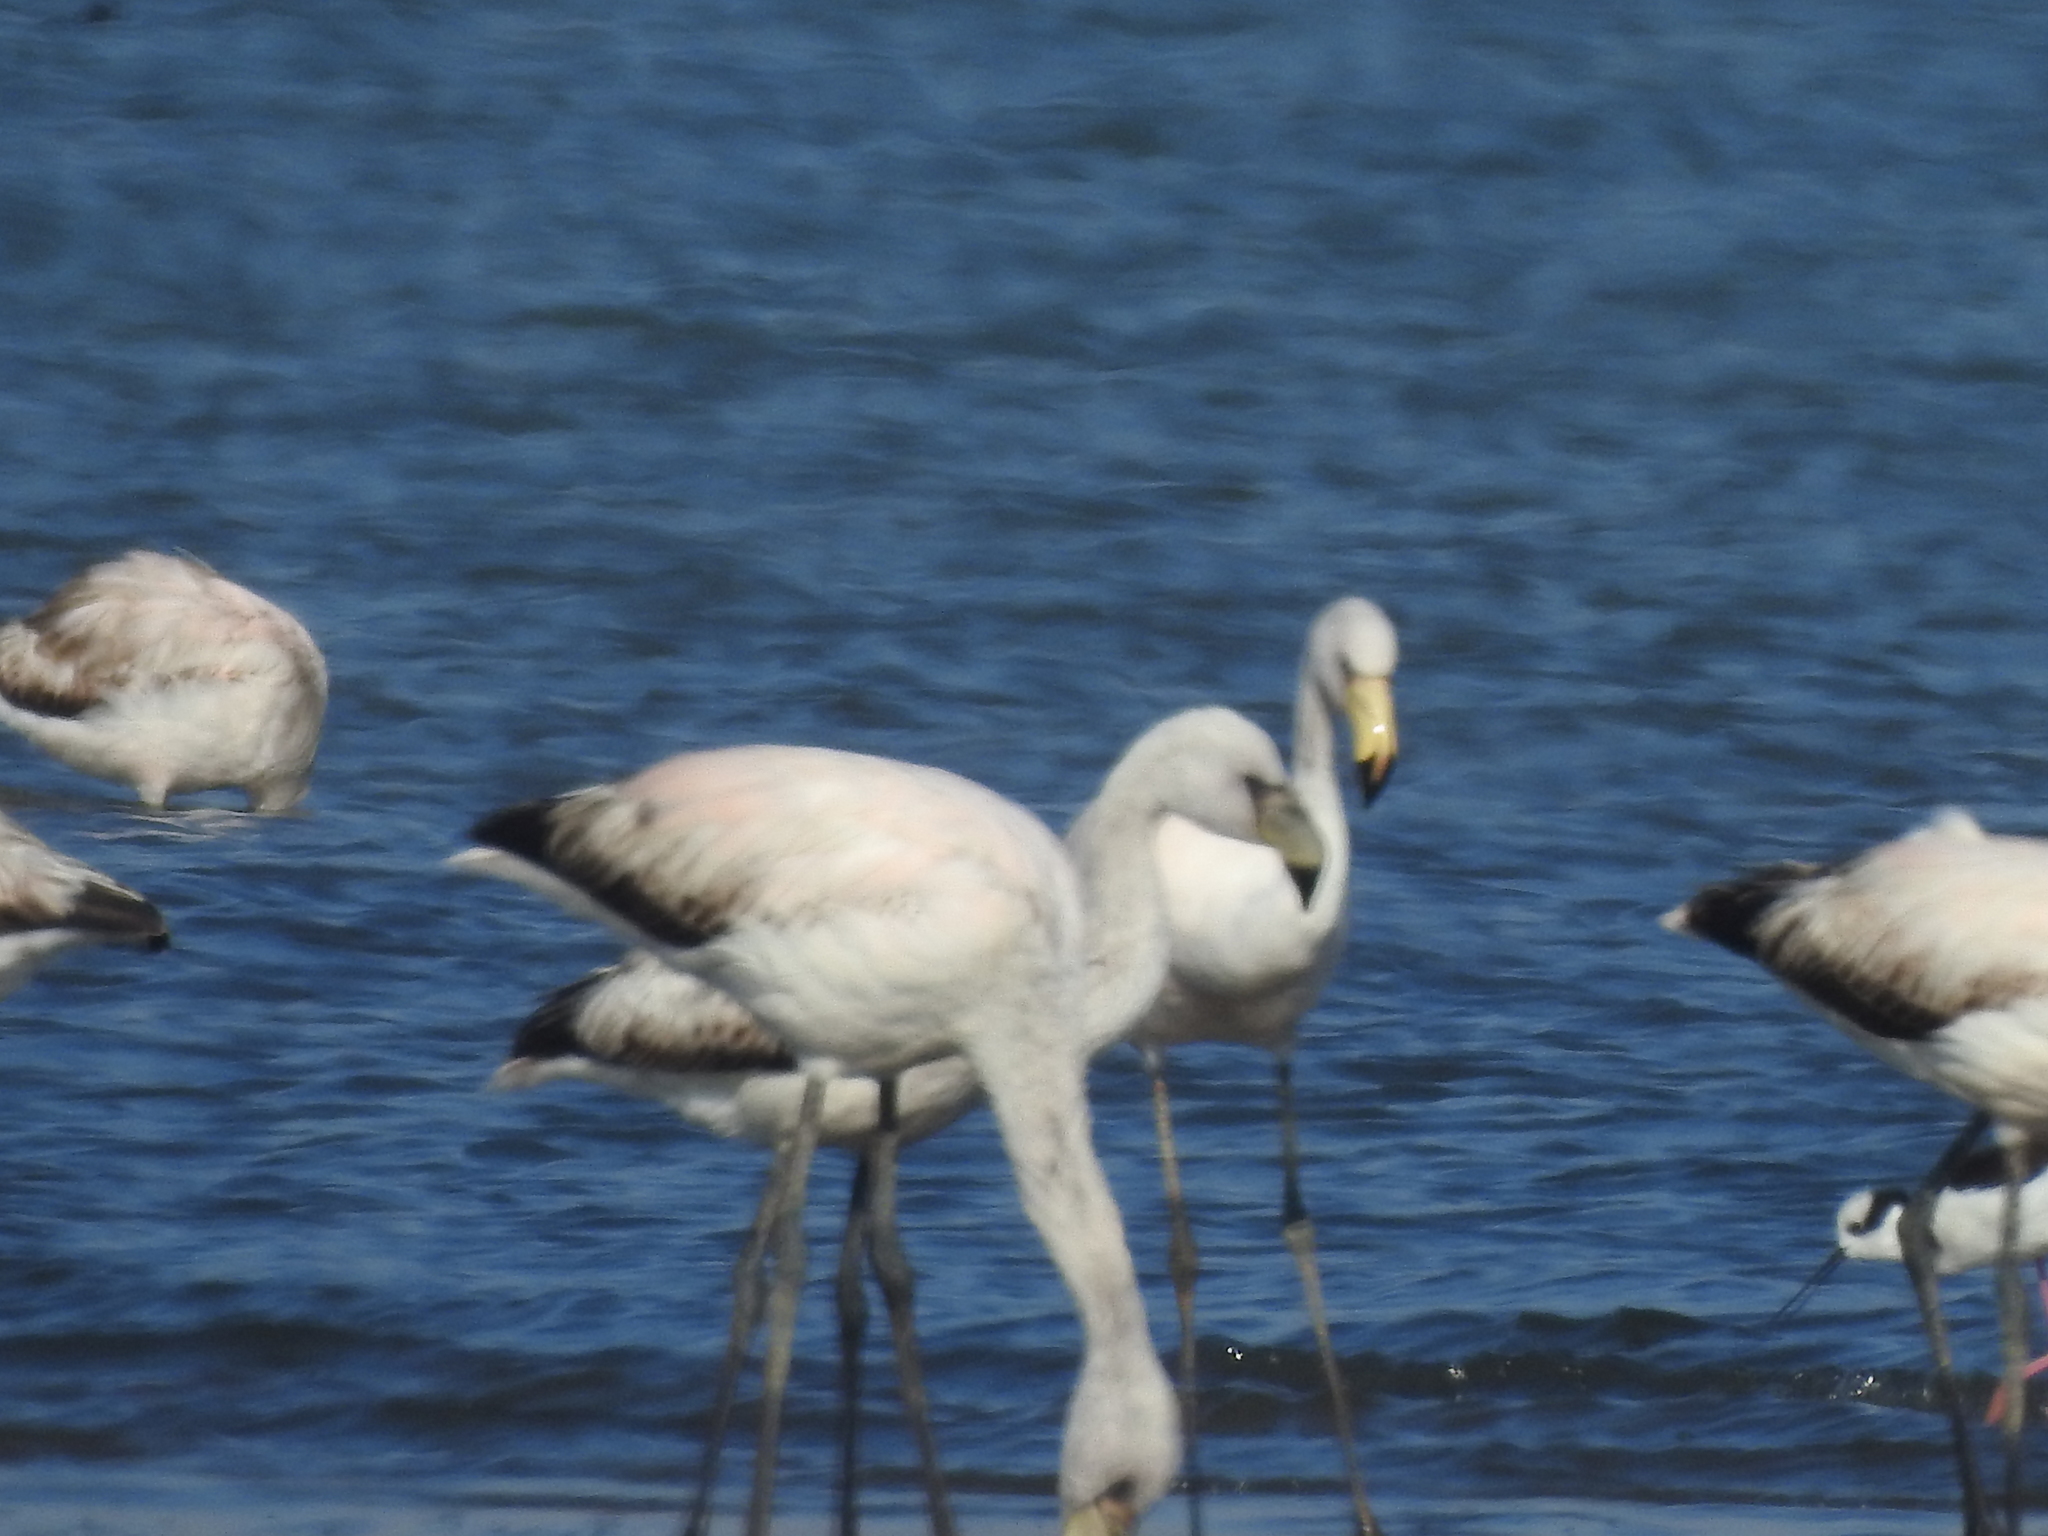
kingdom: Animalia
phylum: Chordata
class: Aves
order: Phoenicopteriformes
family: Phoenicopteridae
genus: Phoenicoparrus
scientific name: Phoenicoparrus jamesi
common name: James's flamingo
